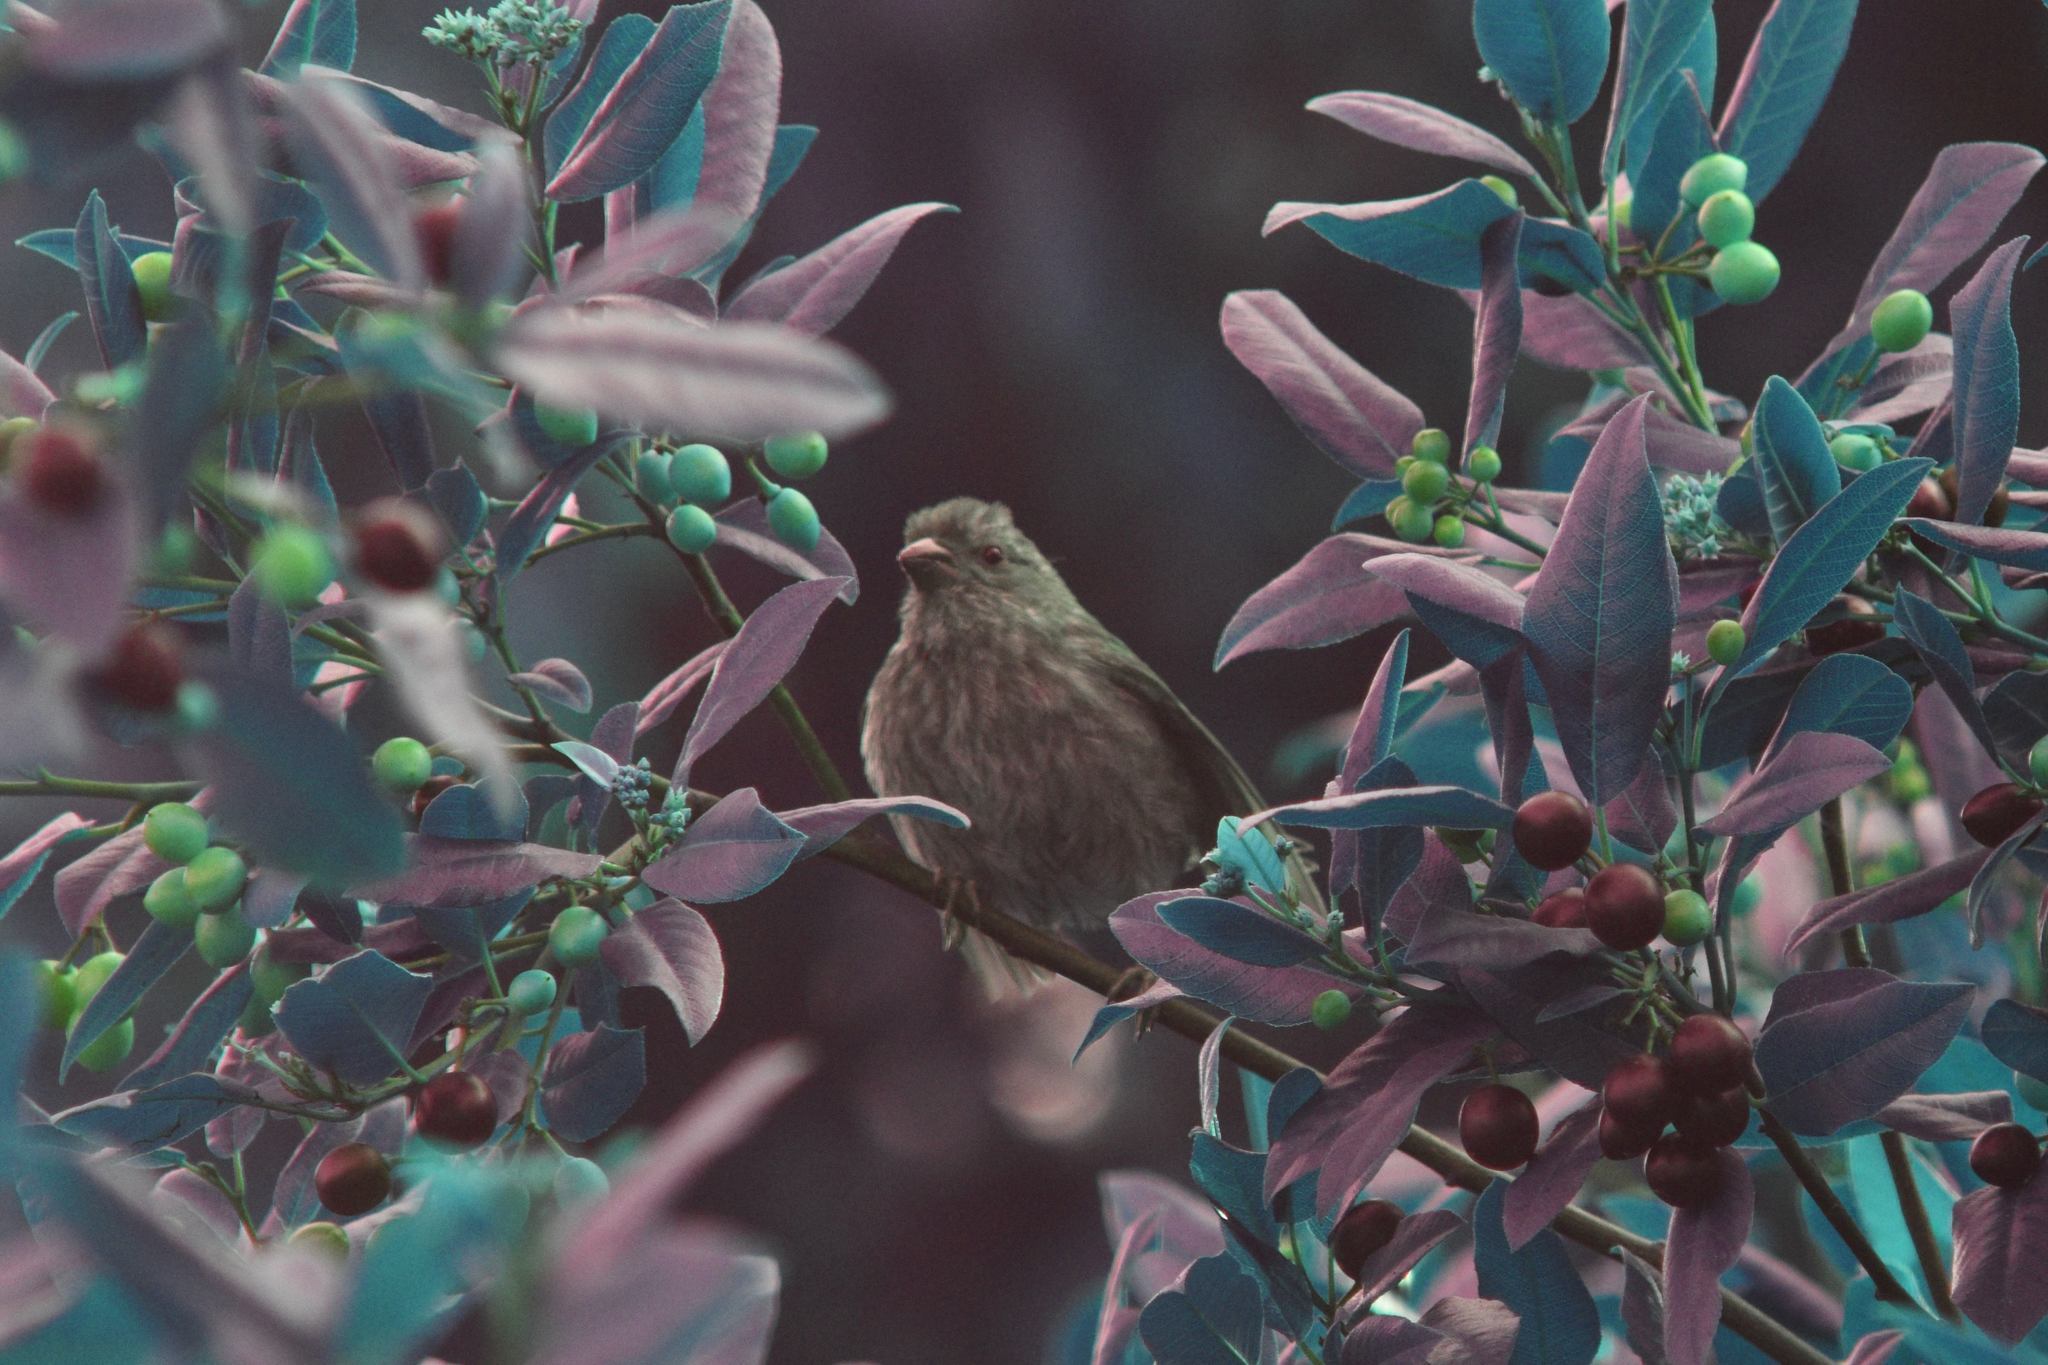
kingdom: Animalia
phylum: Chordata
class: Aves
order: Passeriformes
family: Fringillidae
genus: Haemorhous
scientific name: Haemorhous mexicanus
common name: House finch
